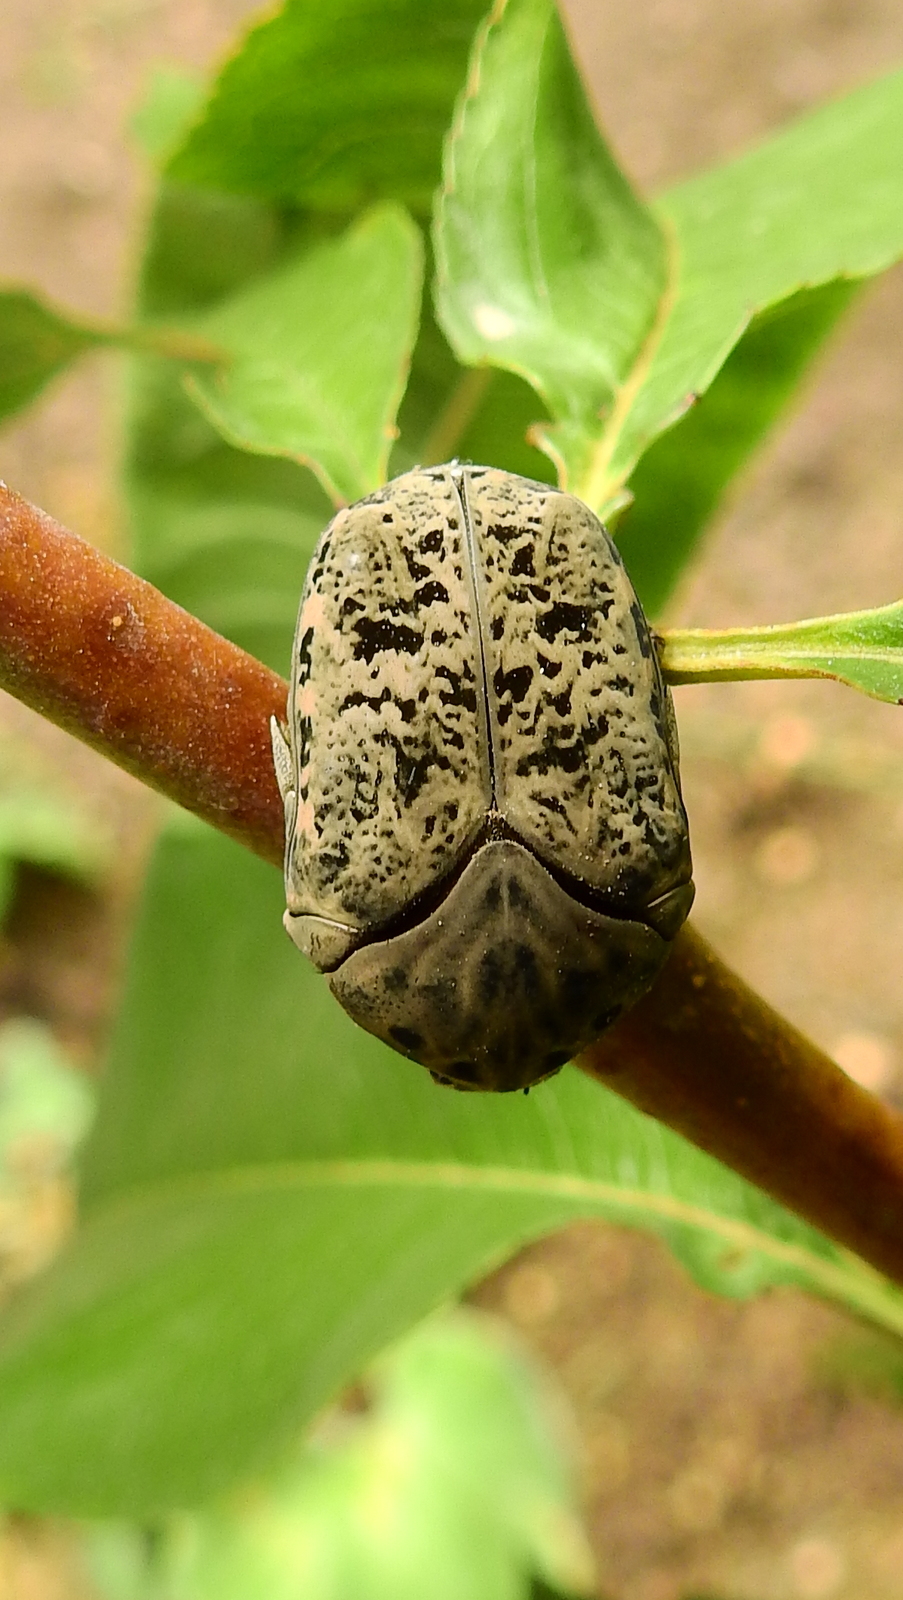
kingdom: Animalia
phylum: Arthropoda
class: Insecta
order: Coleoptera
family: Scarabaeidae
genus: Gymnetis
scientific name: Gymnetis litigiosa
